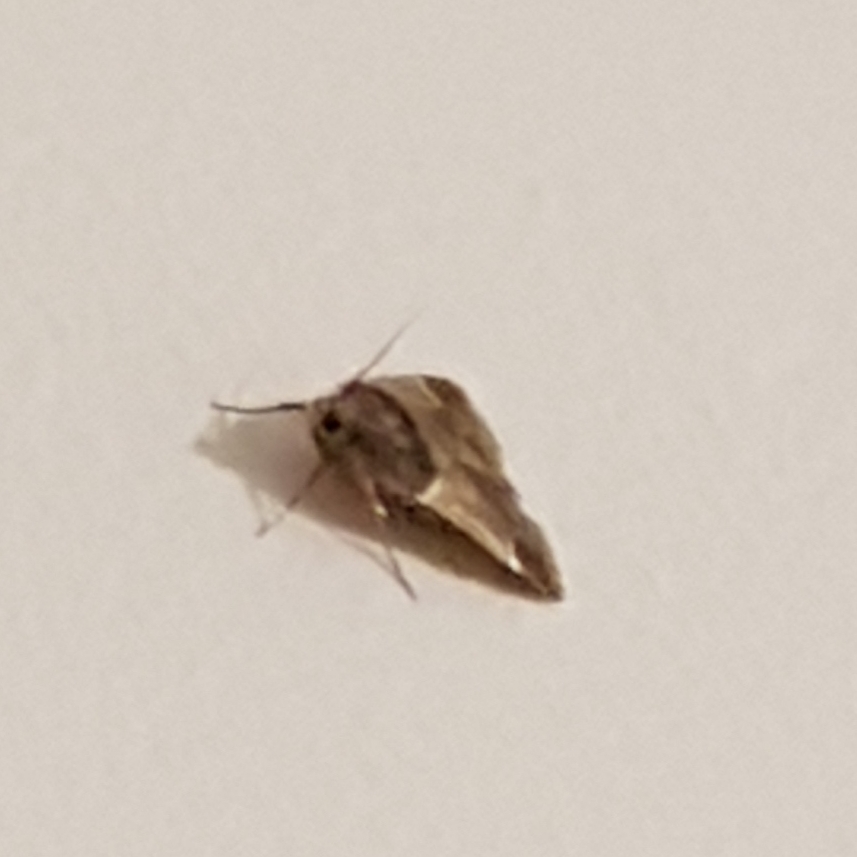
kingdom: Animalia
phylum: Arthropoda
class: Insecta
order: Lepidoptera
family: Pyralidae
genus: Pyralis
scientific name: Pyralis farinalis
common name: Meal moth
